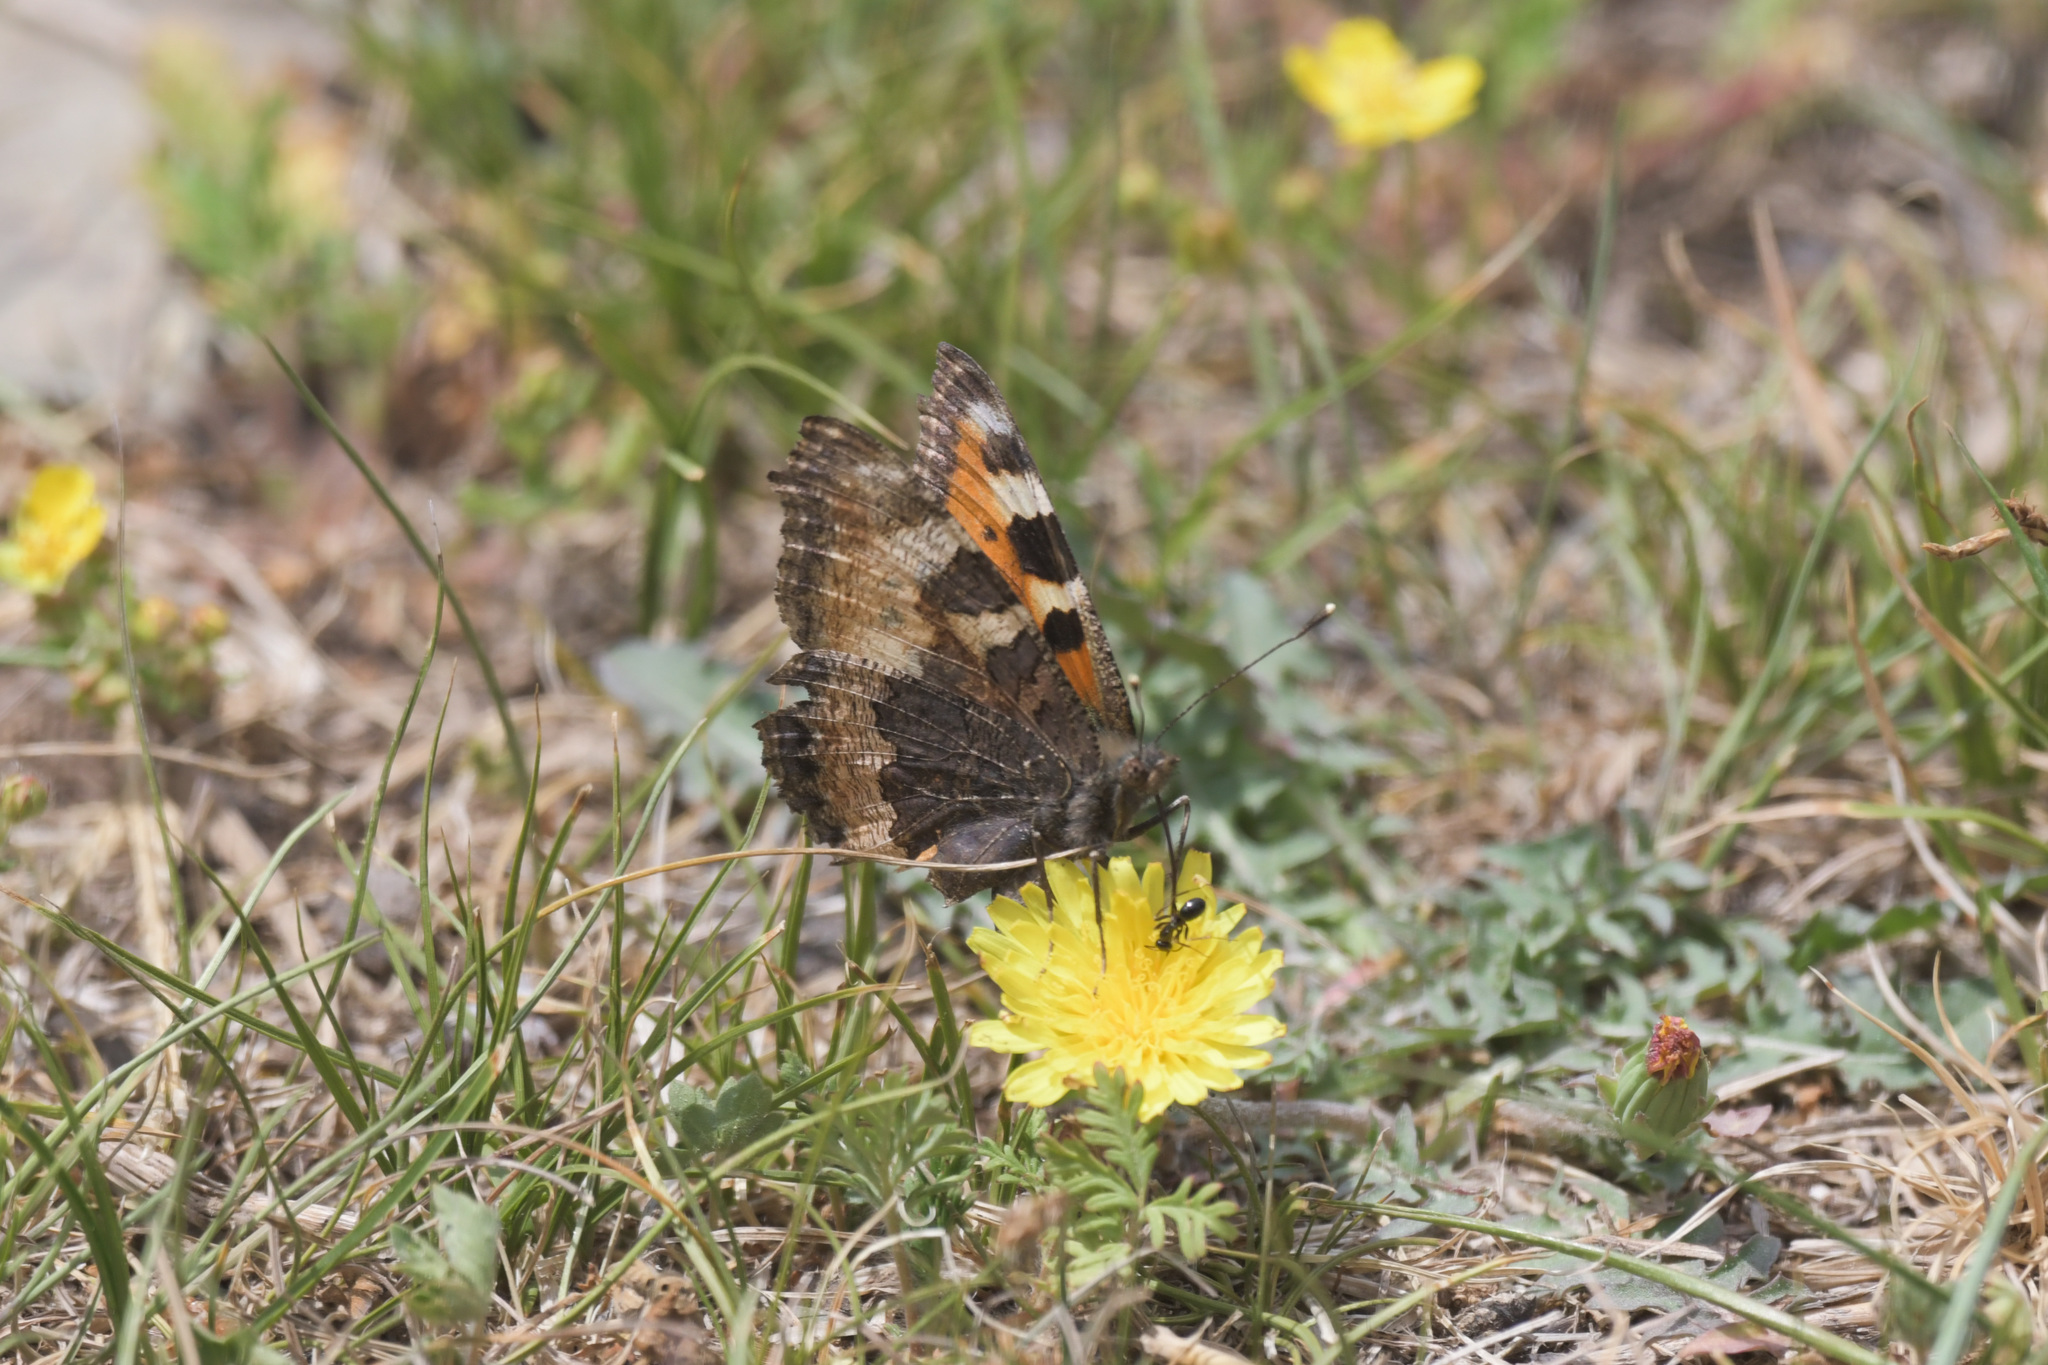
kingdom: Animalia
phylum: Arthropoda
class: Insecta
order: Lepidoptera
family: Nymphalidae
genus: Aglais
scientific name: Aglais urticae
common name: Small tortoiseshell
